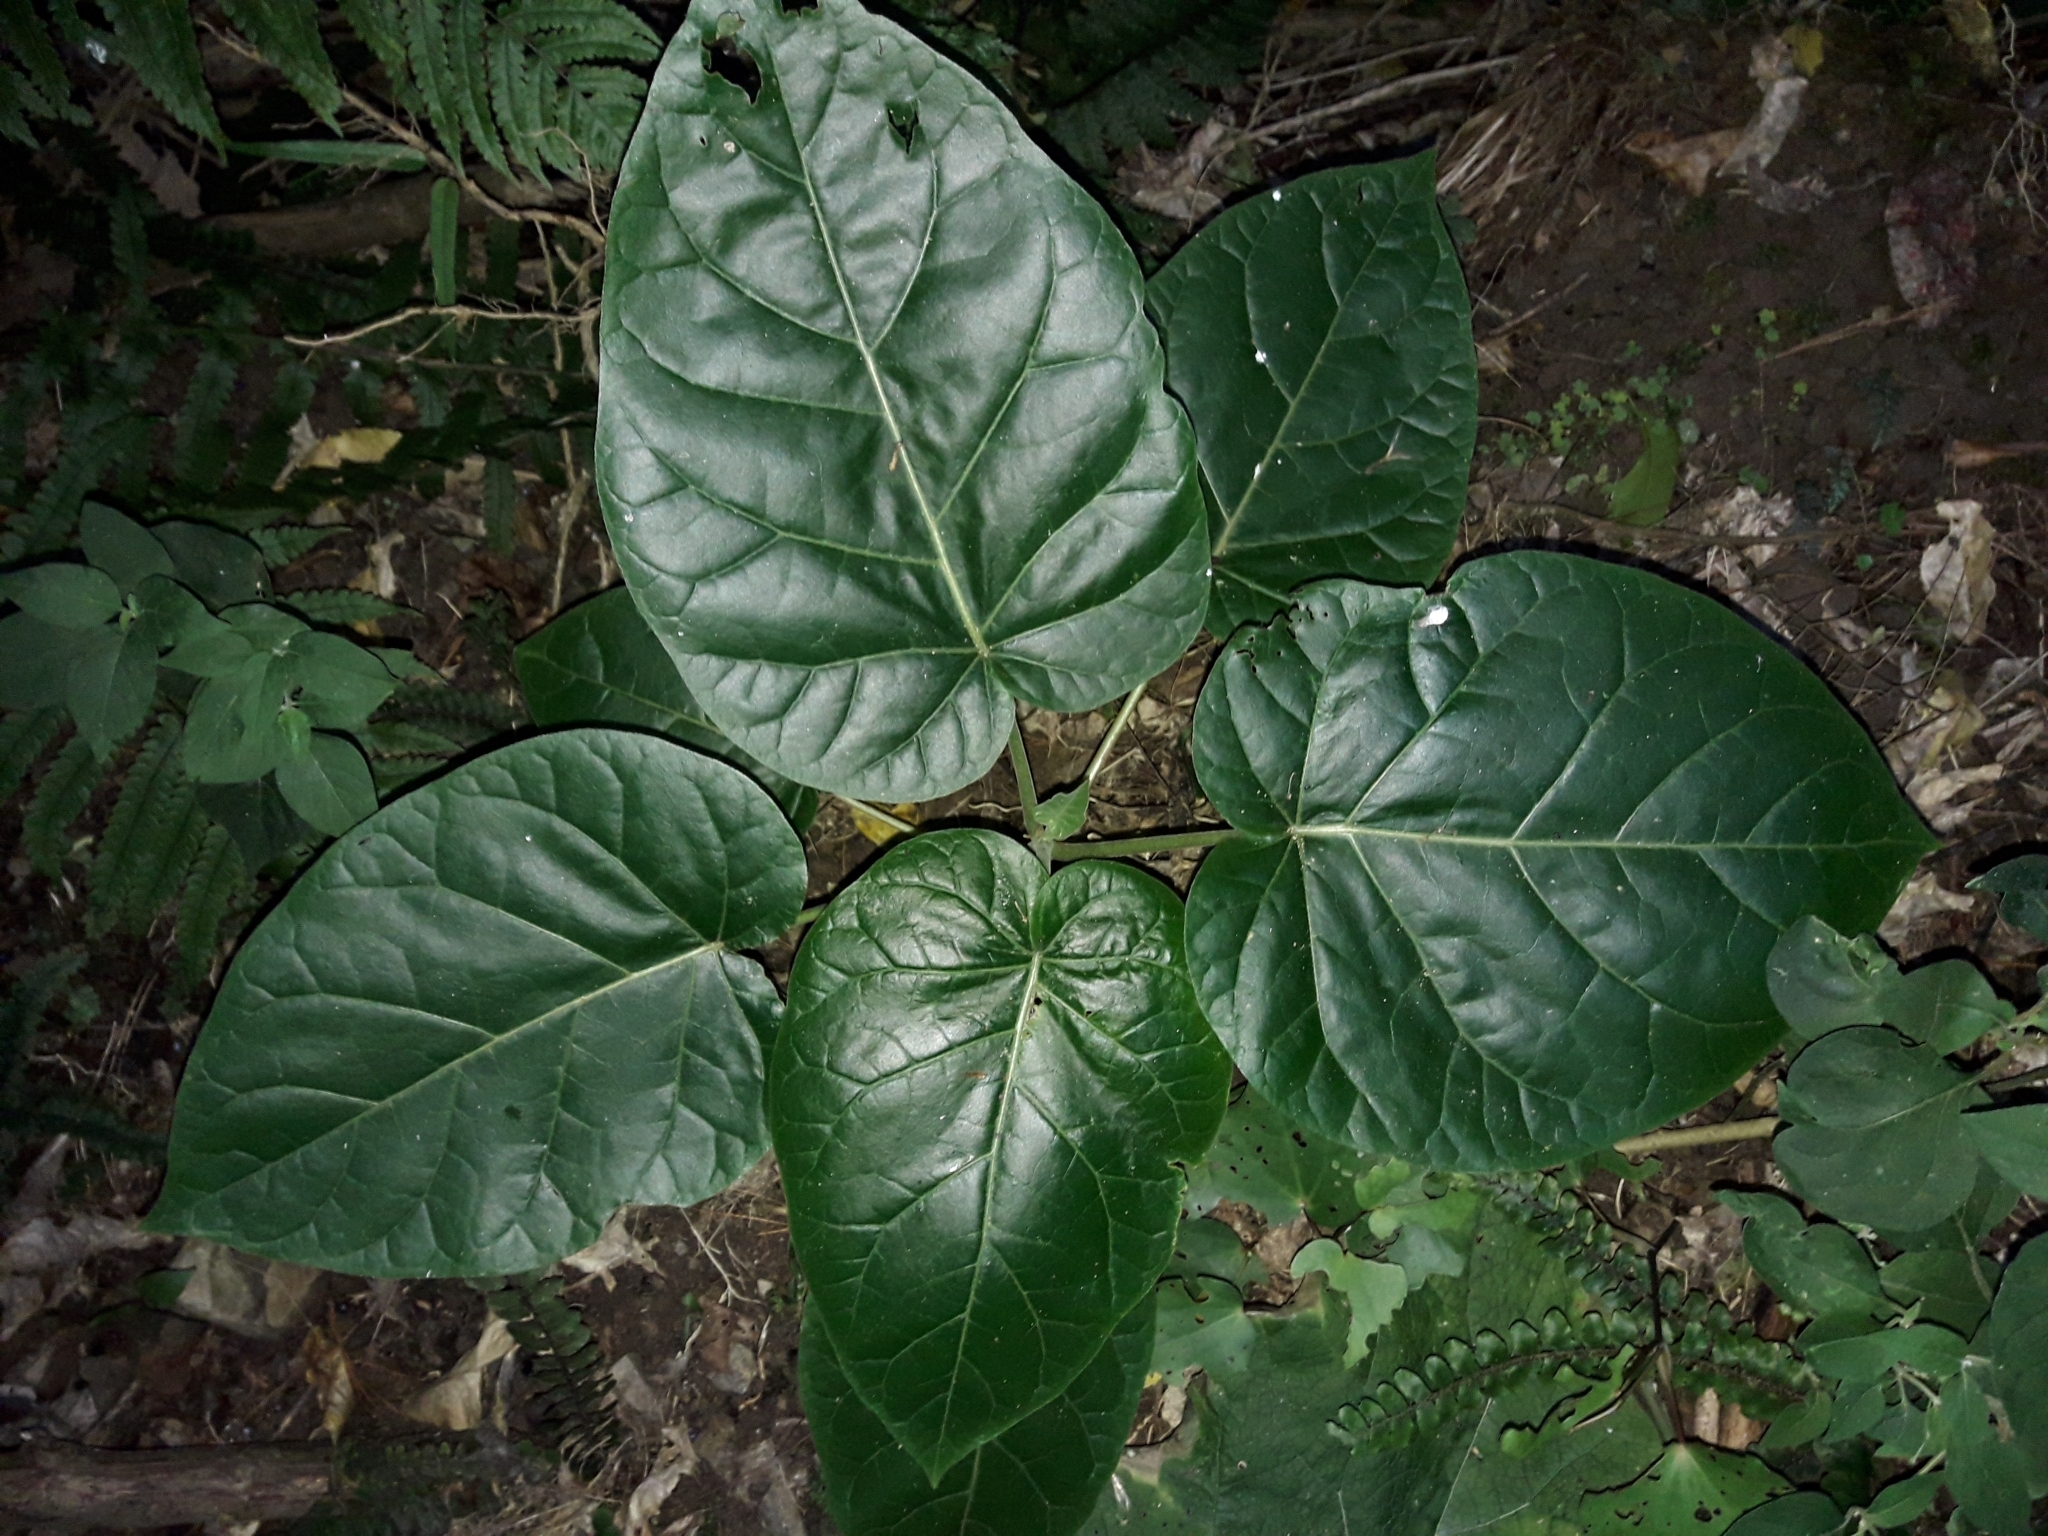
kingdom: Plantae
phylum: Tracheophyta
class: Magnoliopsida
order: Solanales
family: Solanaceae
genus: Solanum
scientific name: Solanum betaceum
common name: Tamarillo
